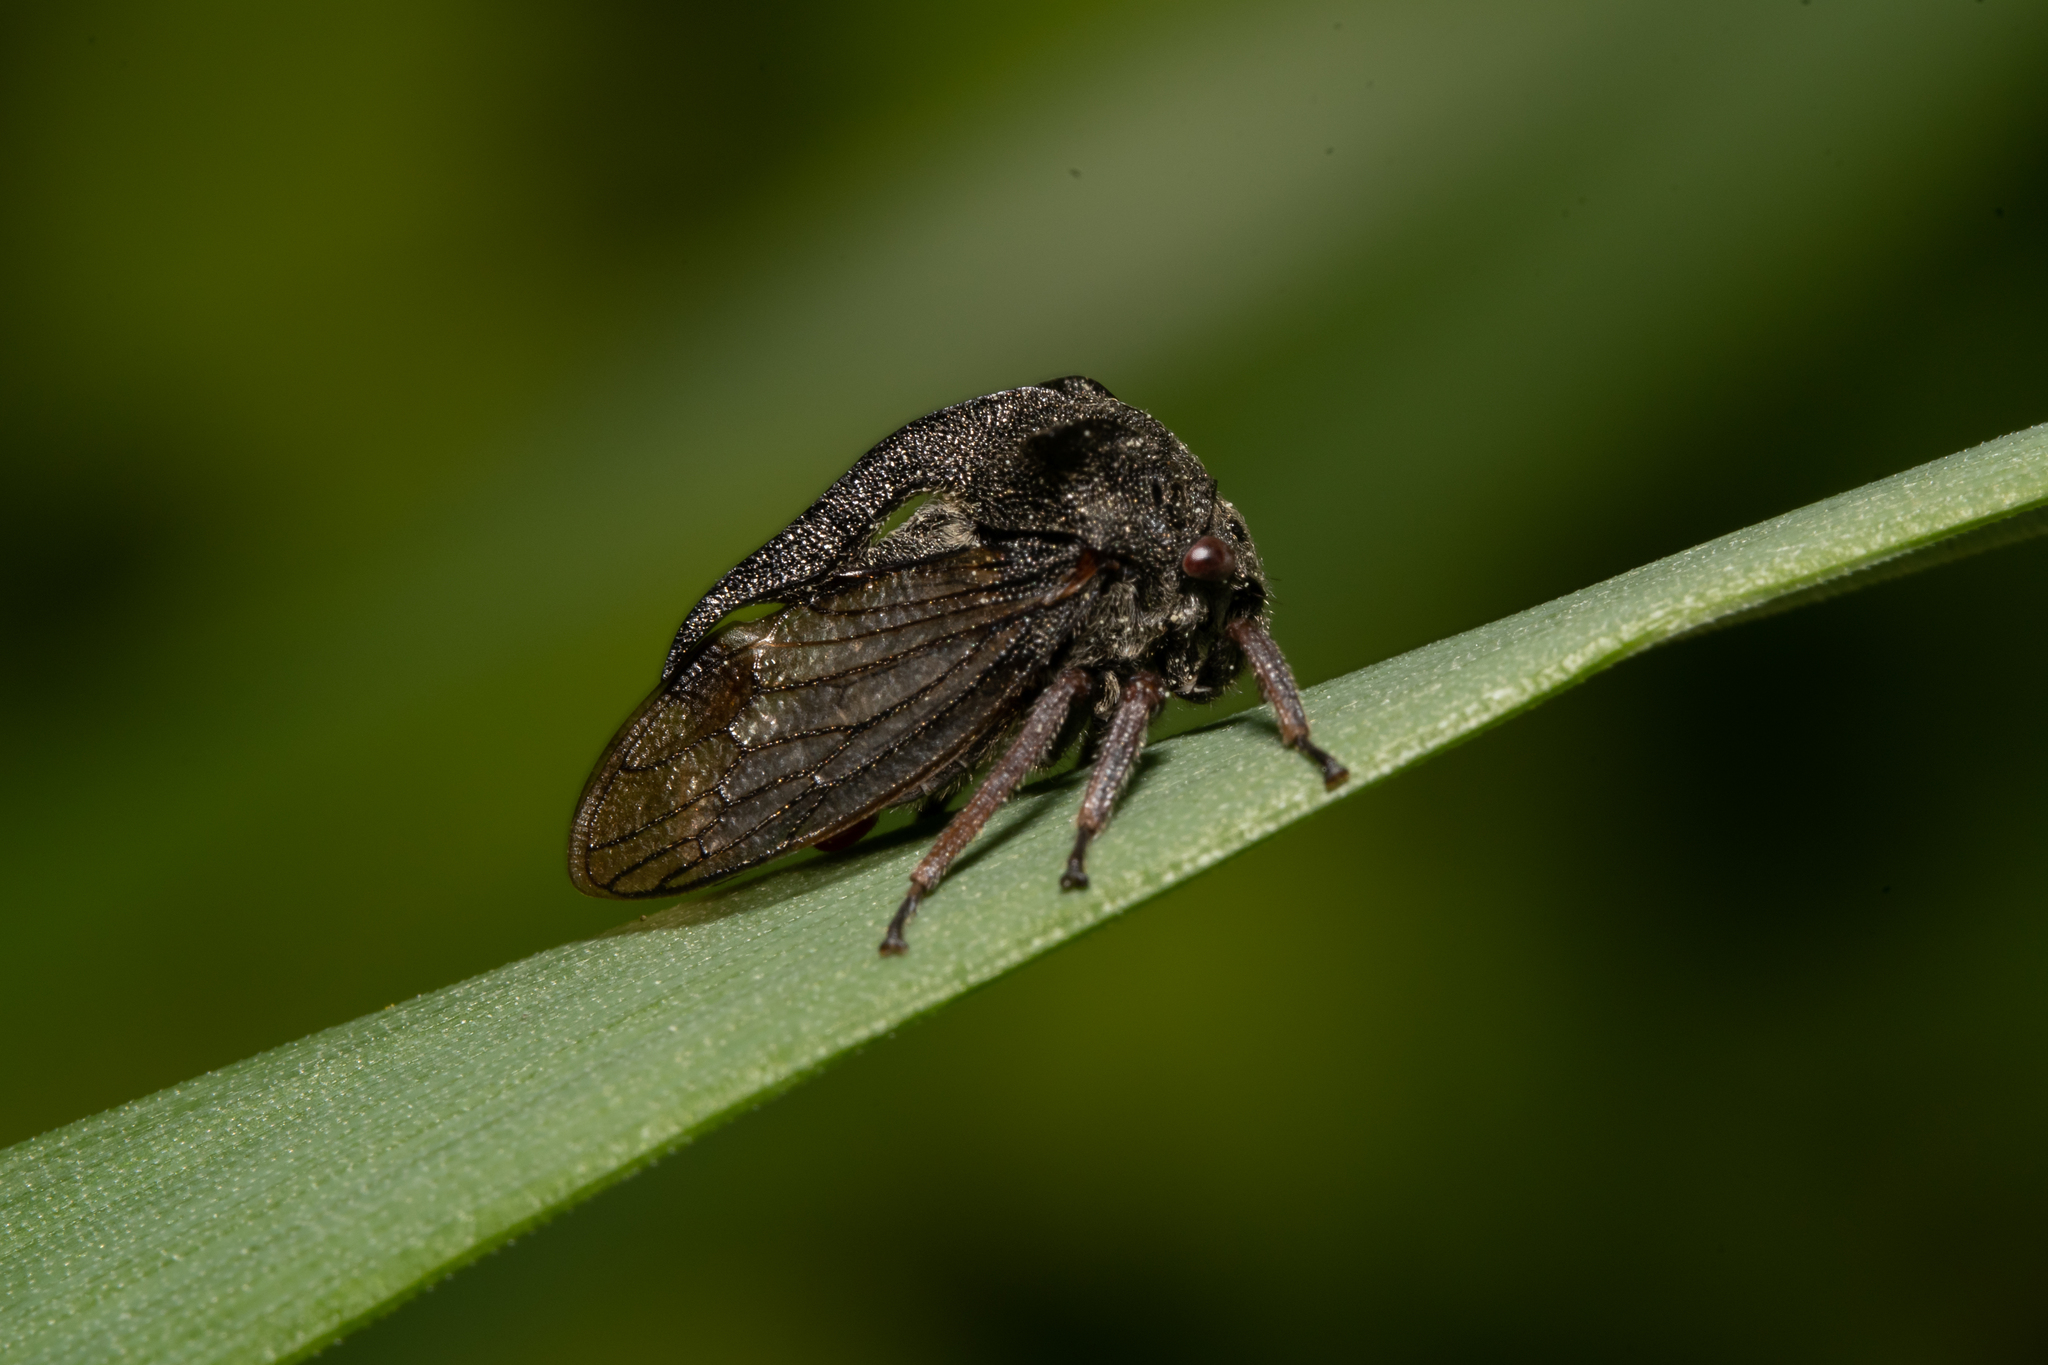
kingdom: Animalia
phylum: Arthropoda
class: Insecta
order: Hemiptera
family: Membracidae
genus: Centrotus
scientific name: Centrotus cornuta
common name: Treehopper
